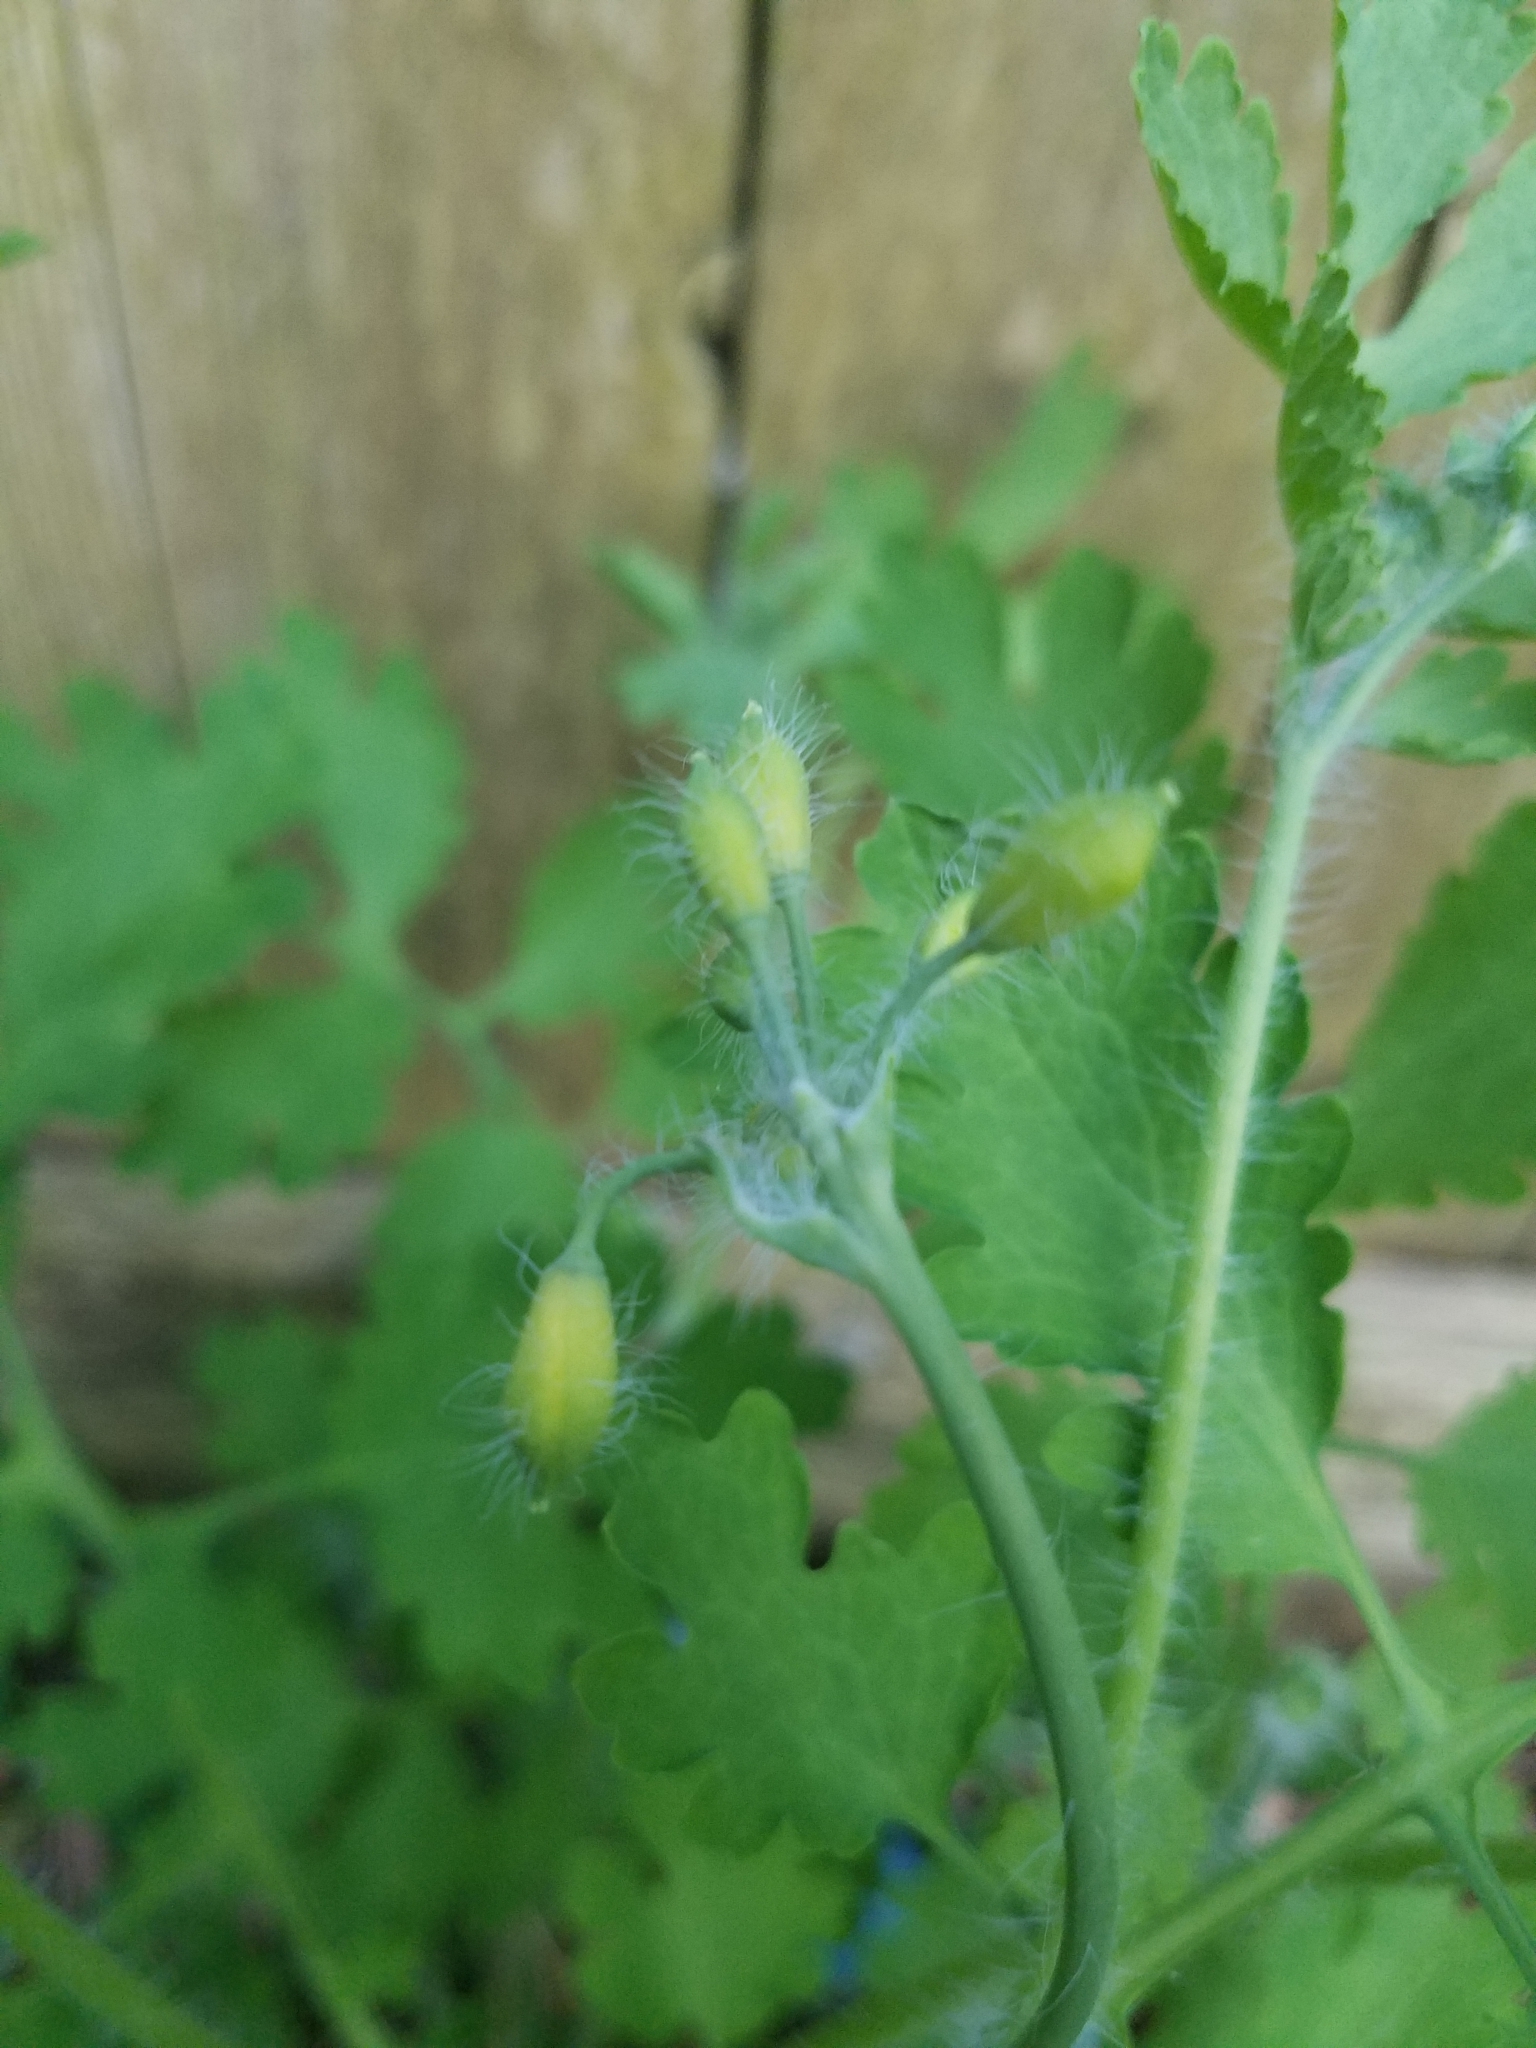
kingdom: Plantae
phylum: Tracheophyta
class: Magnoliopsida
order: Ranunculales
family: Papaveraceae
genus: Chelidonium
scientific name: Chelidonium majus
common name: Greater celandine
